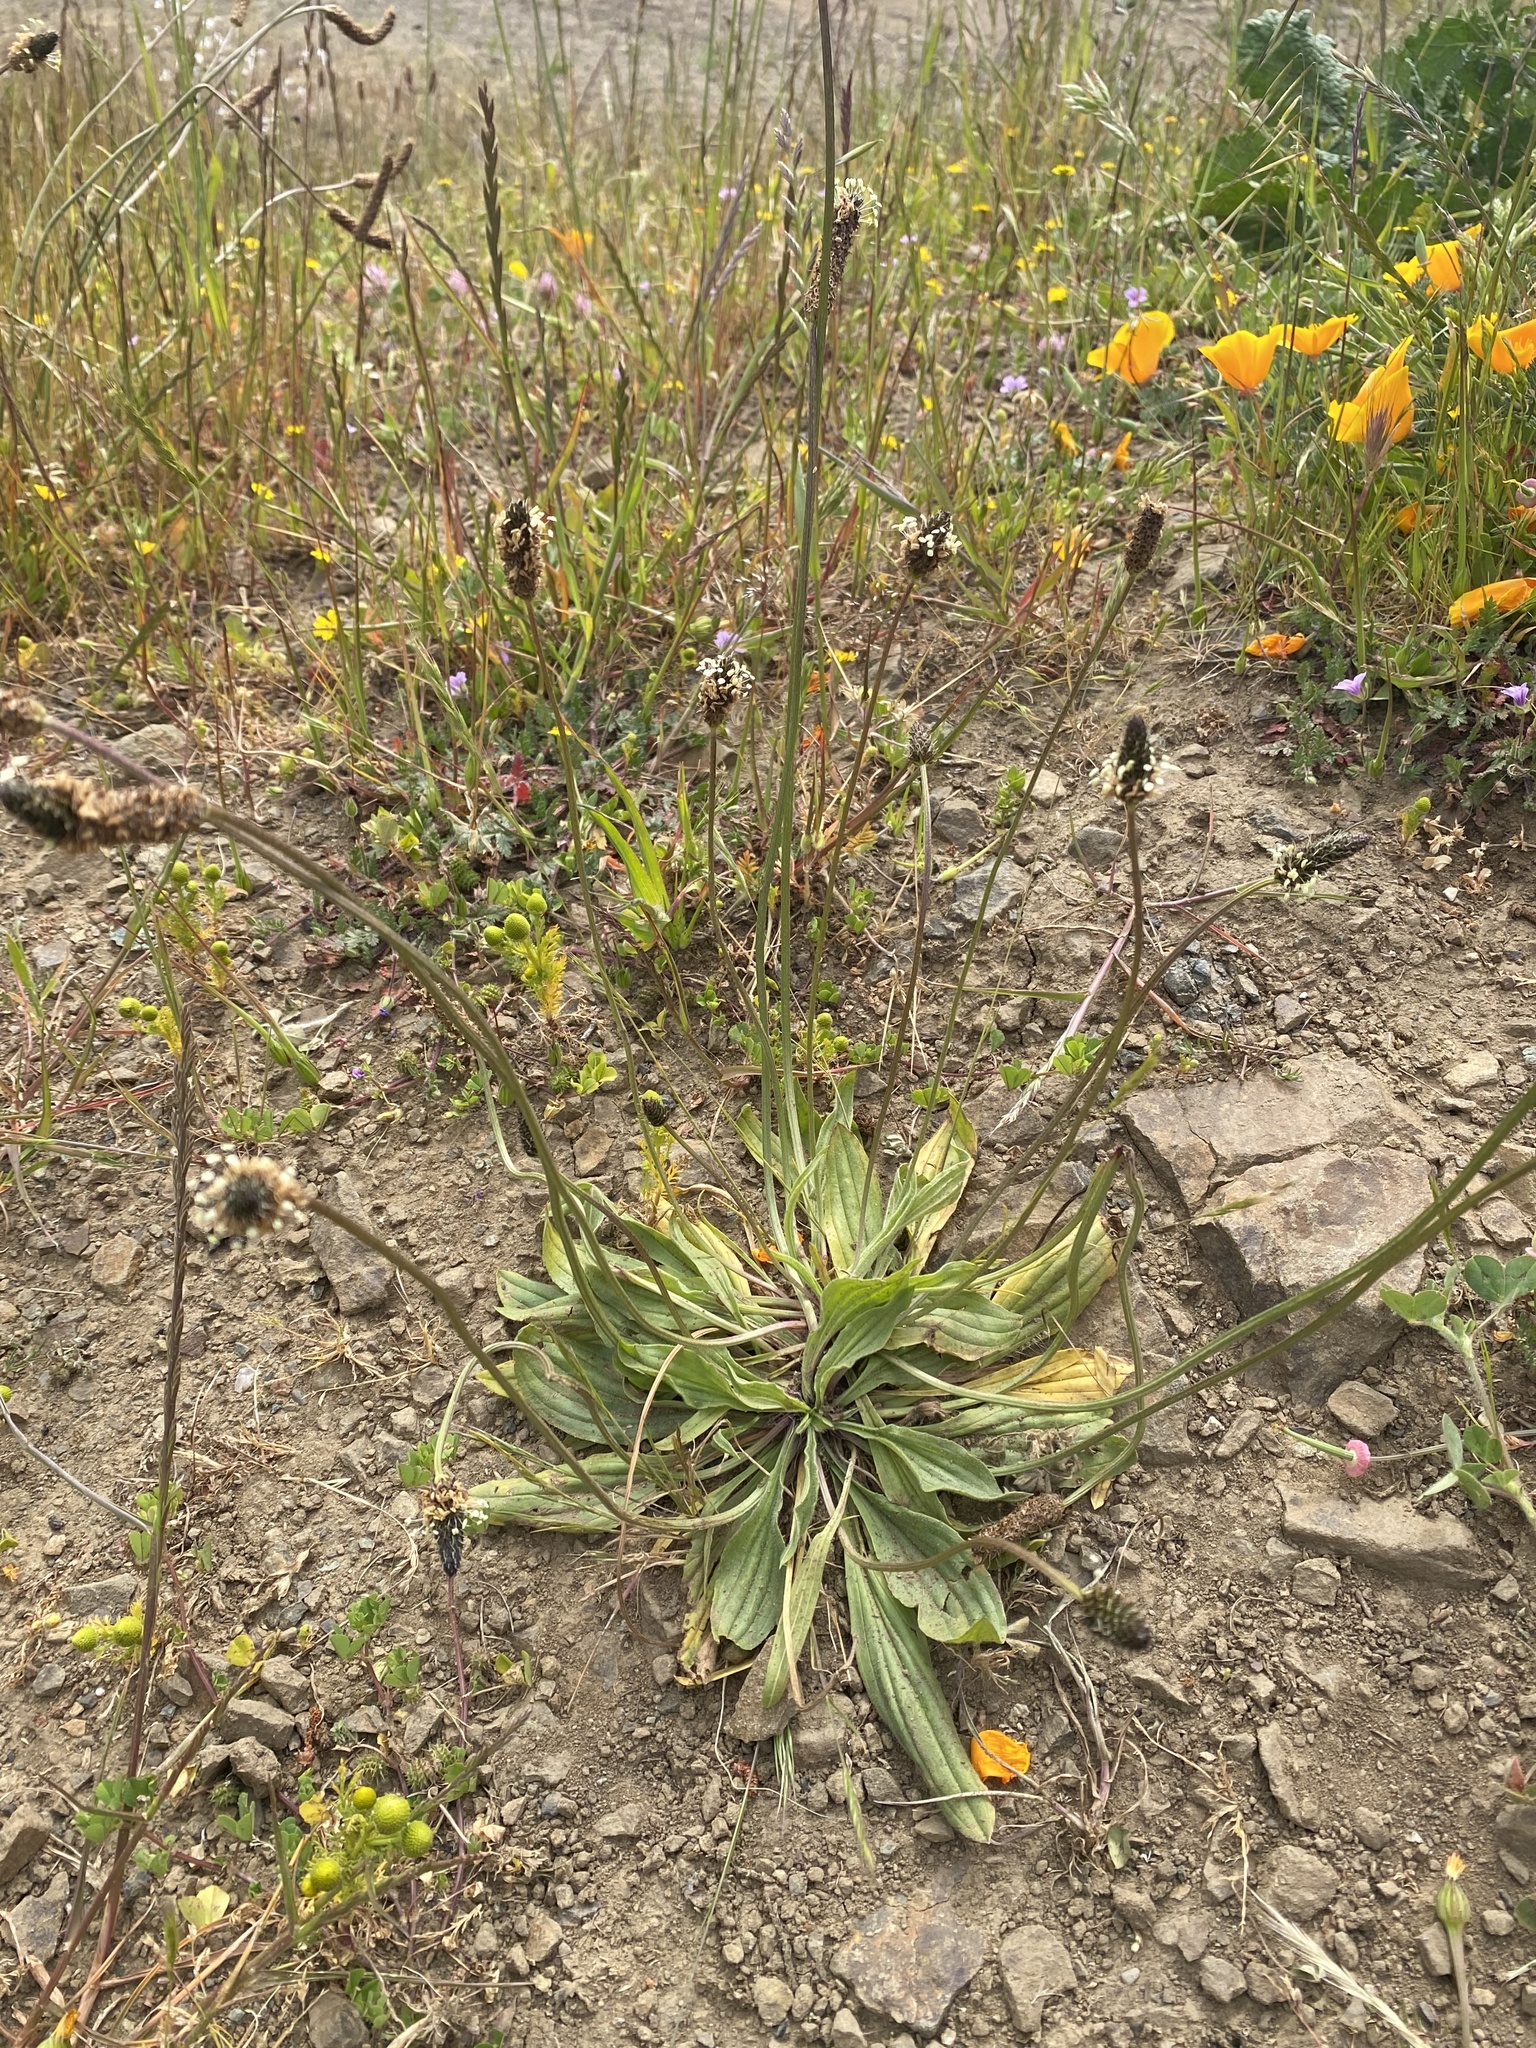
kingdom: Plantae
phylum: Tracheophyta
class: Magnoliopsida
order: Lamiales
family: Plantaginaceae
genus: Plantago
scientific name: Plantago lanceolata
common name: Ribwort plantain
